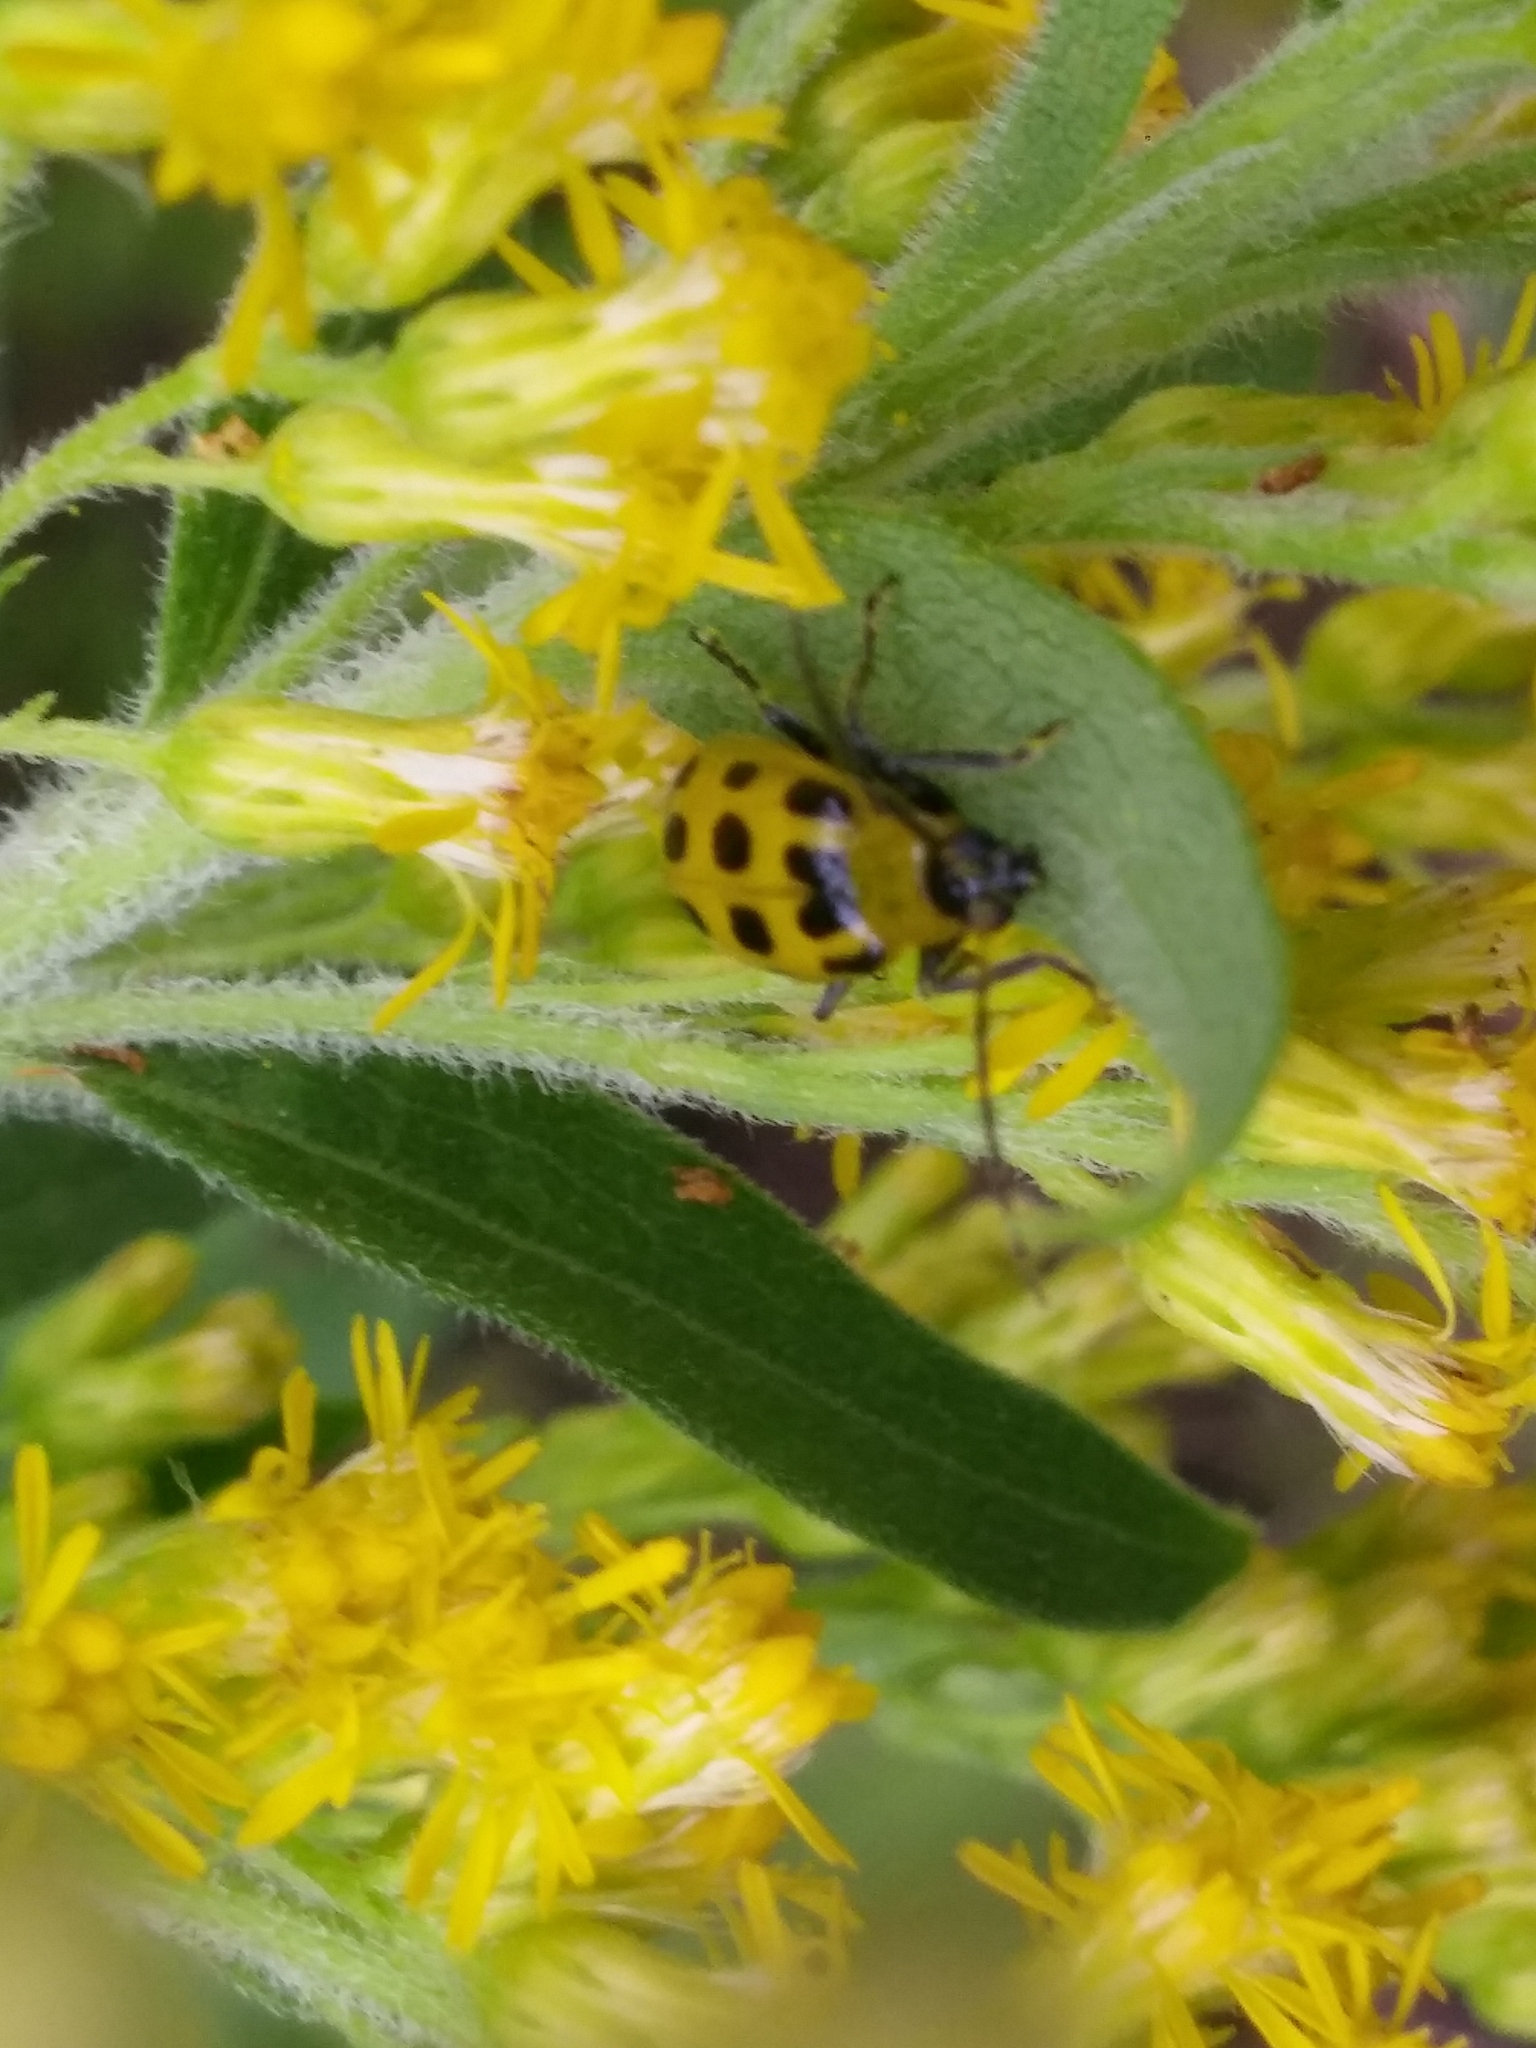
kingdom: Animalia
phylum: Arthropoda
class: Insecta
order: Coleoptera
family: Chrysomelidae
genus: Diabrotica
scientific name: Diabrotica undecimpunctata
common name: Spotted cucumber beetle
